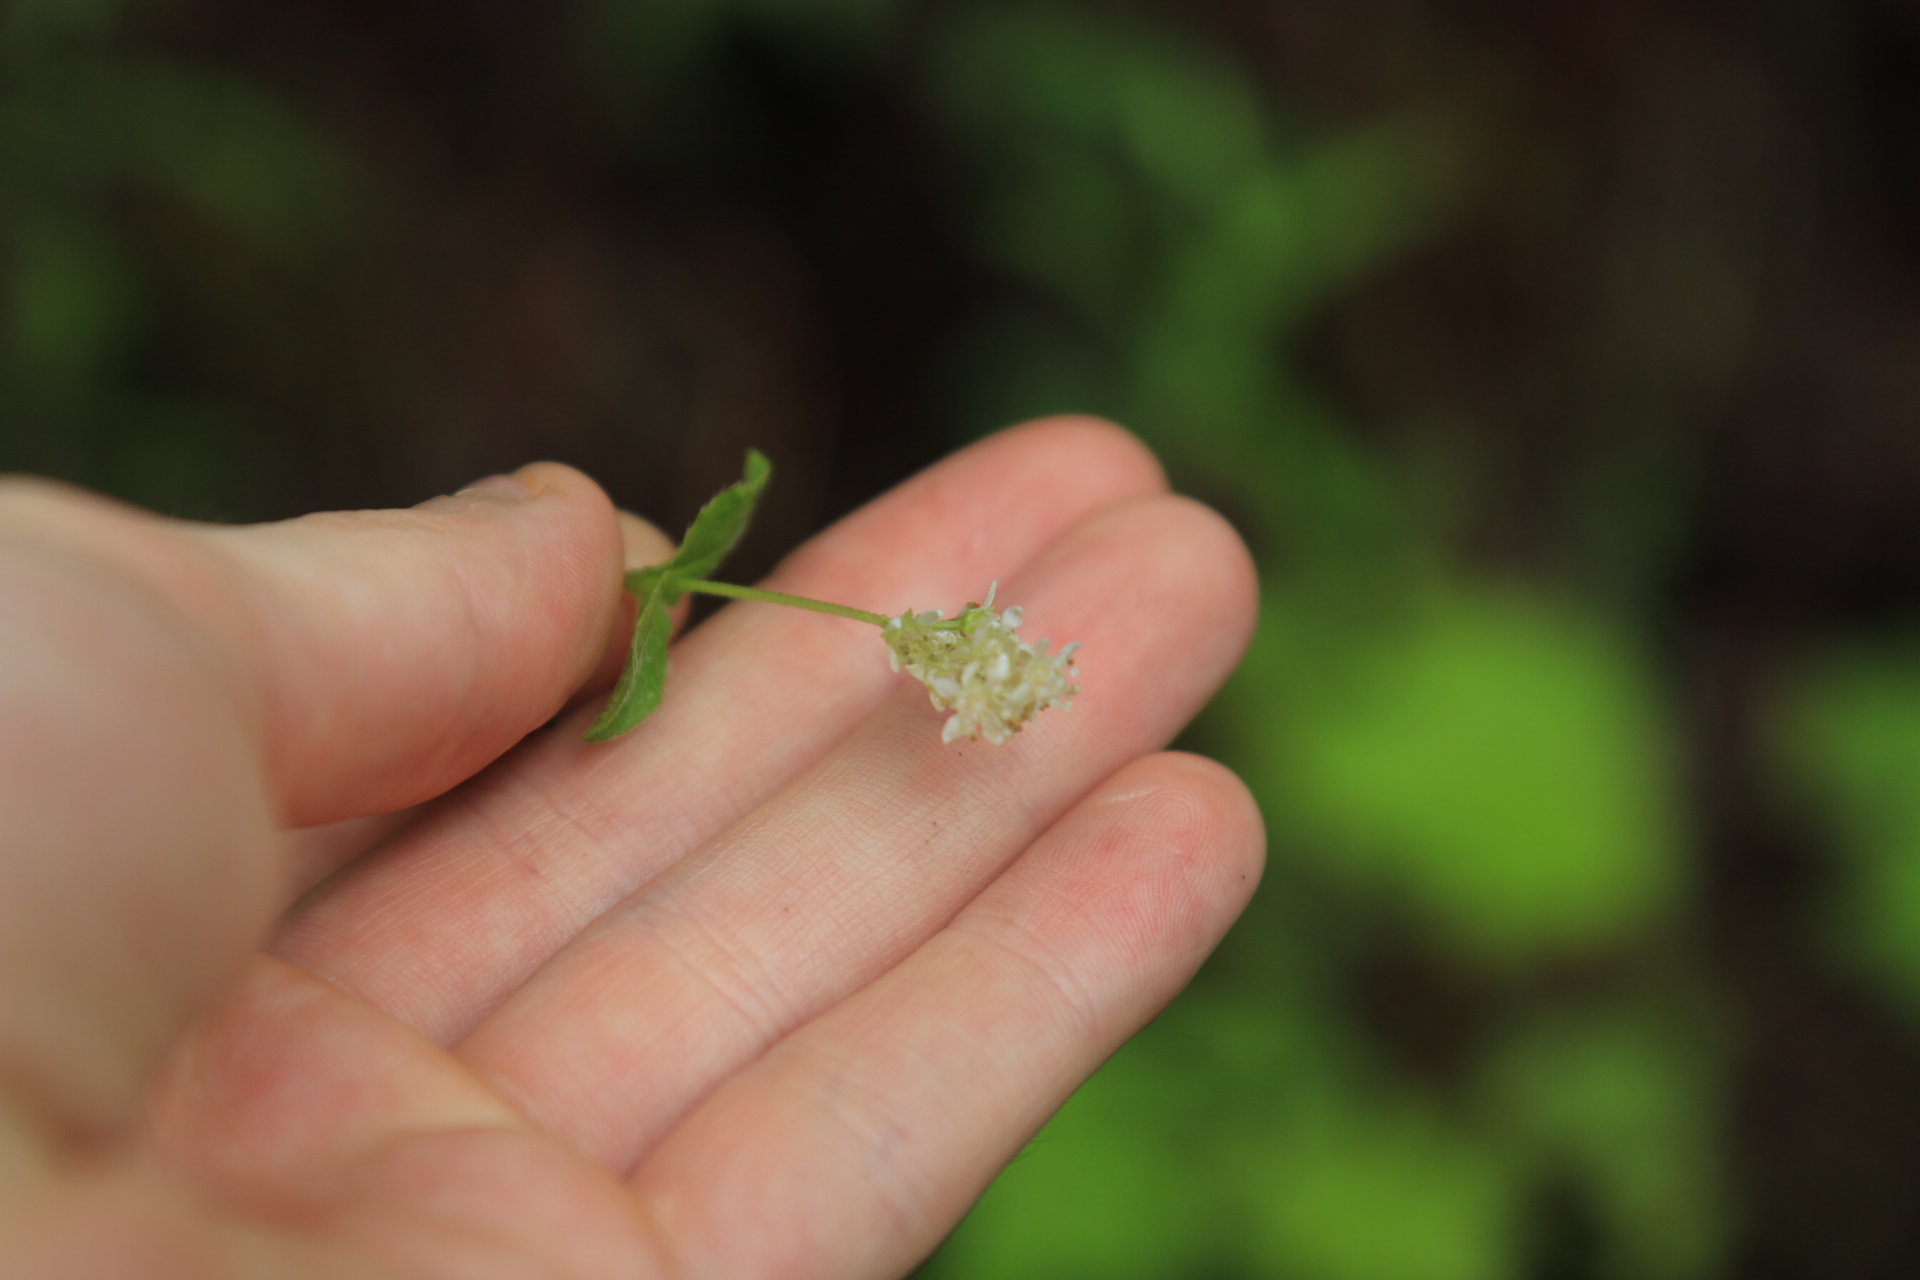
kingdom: Plantae
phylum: Tracheophyta
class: Magnoliopsida
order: Cornales
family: Hydrangeaceae
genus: Whipplea
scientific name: Whipplea modesta
